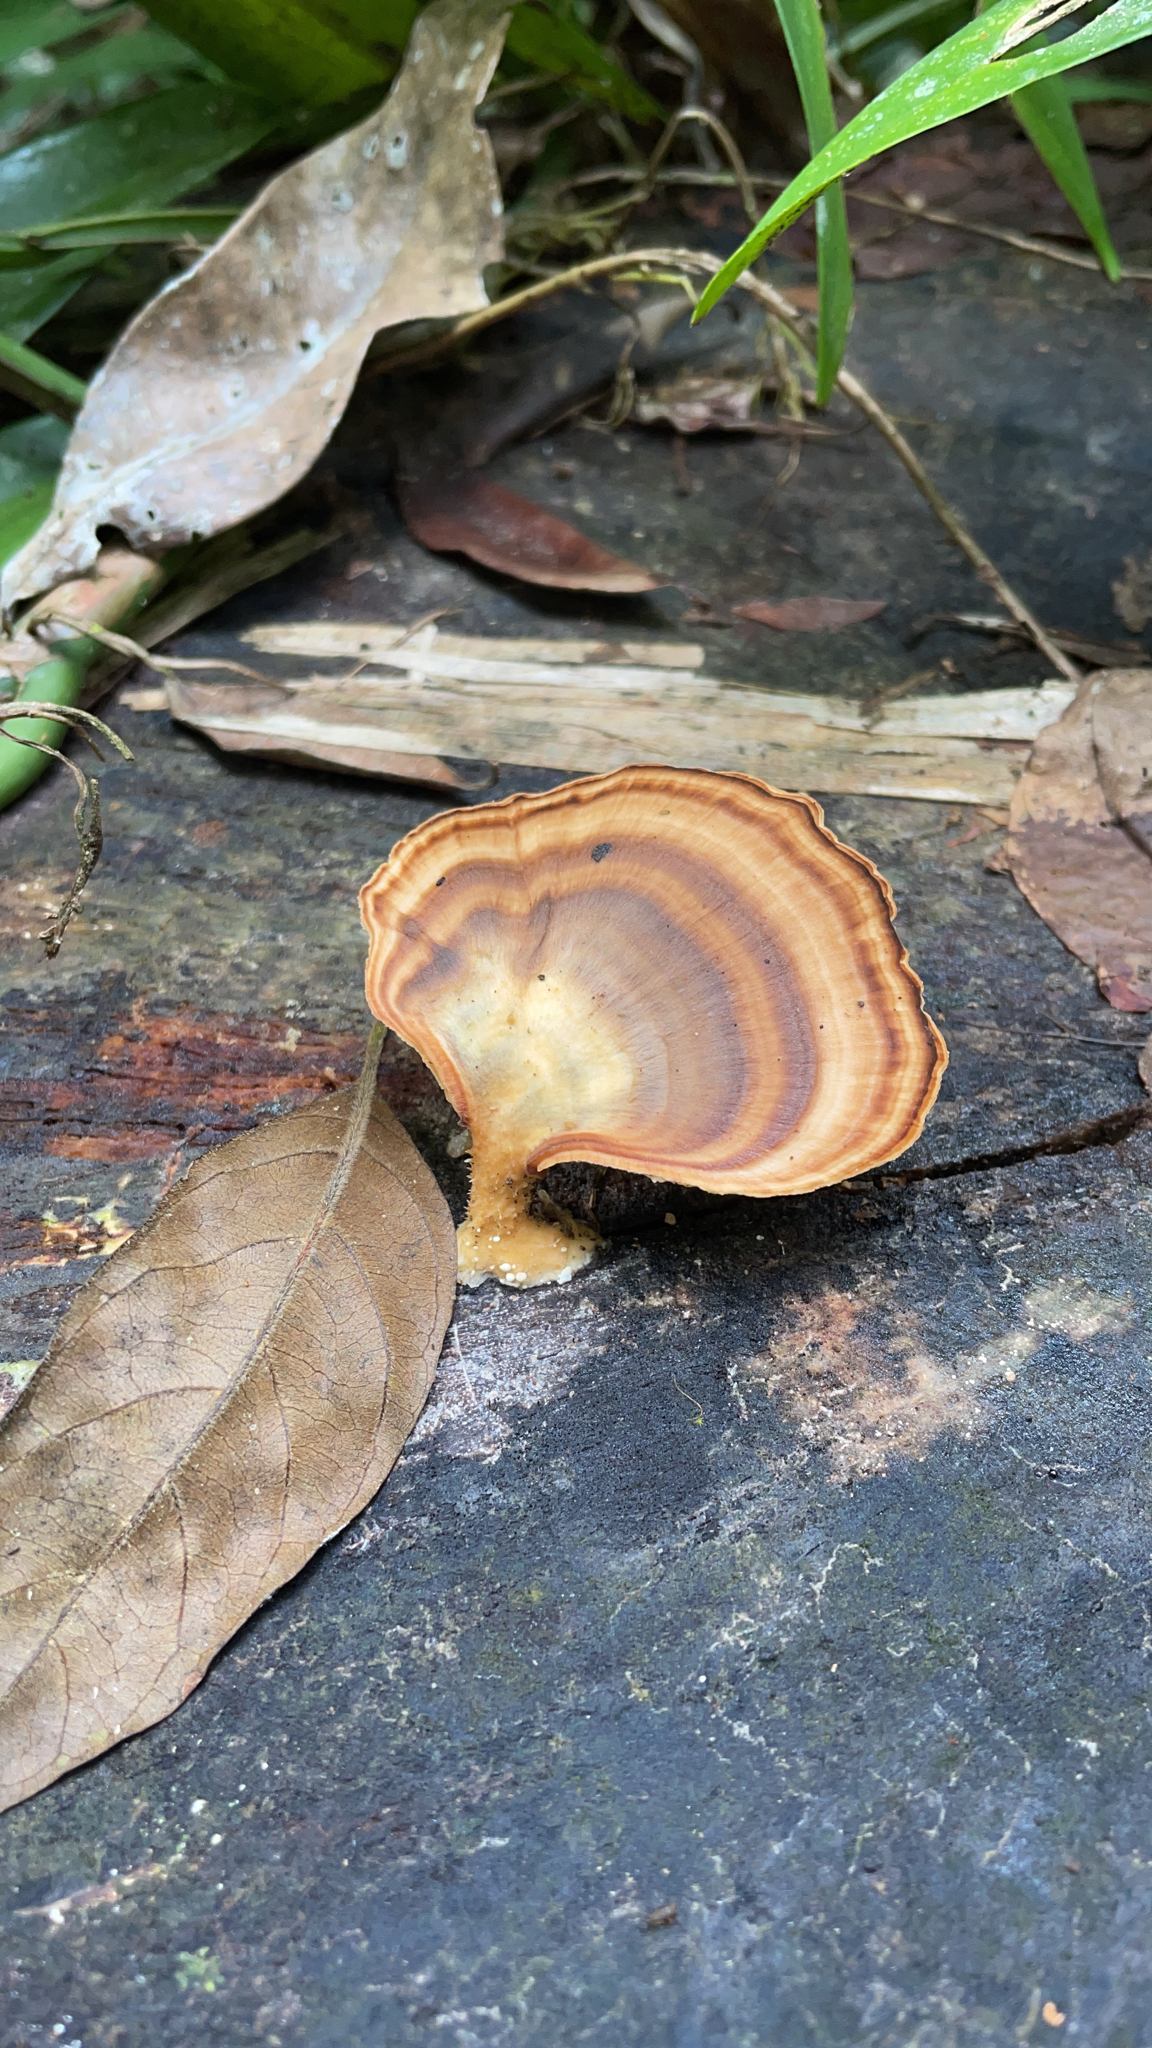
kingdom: Fungi
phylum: Basidiomycota
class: Agaricomycetes
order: Polyporales
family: Polyporaceae
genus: Microporus
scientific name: Microporus xanthopus
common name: Yellow-stemmed micropore
